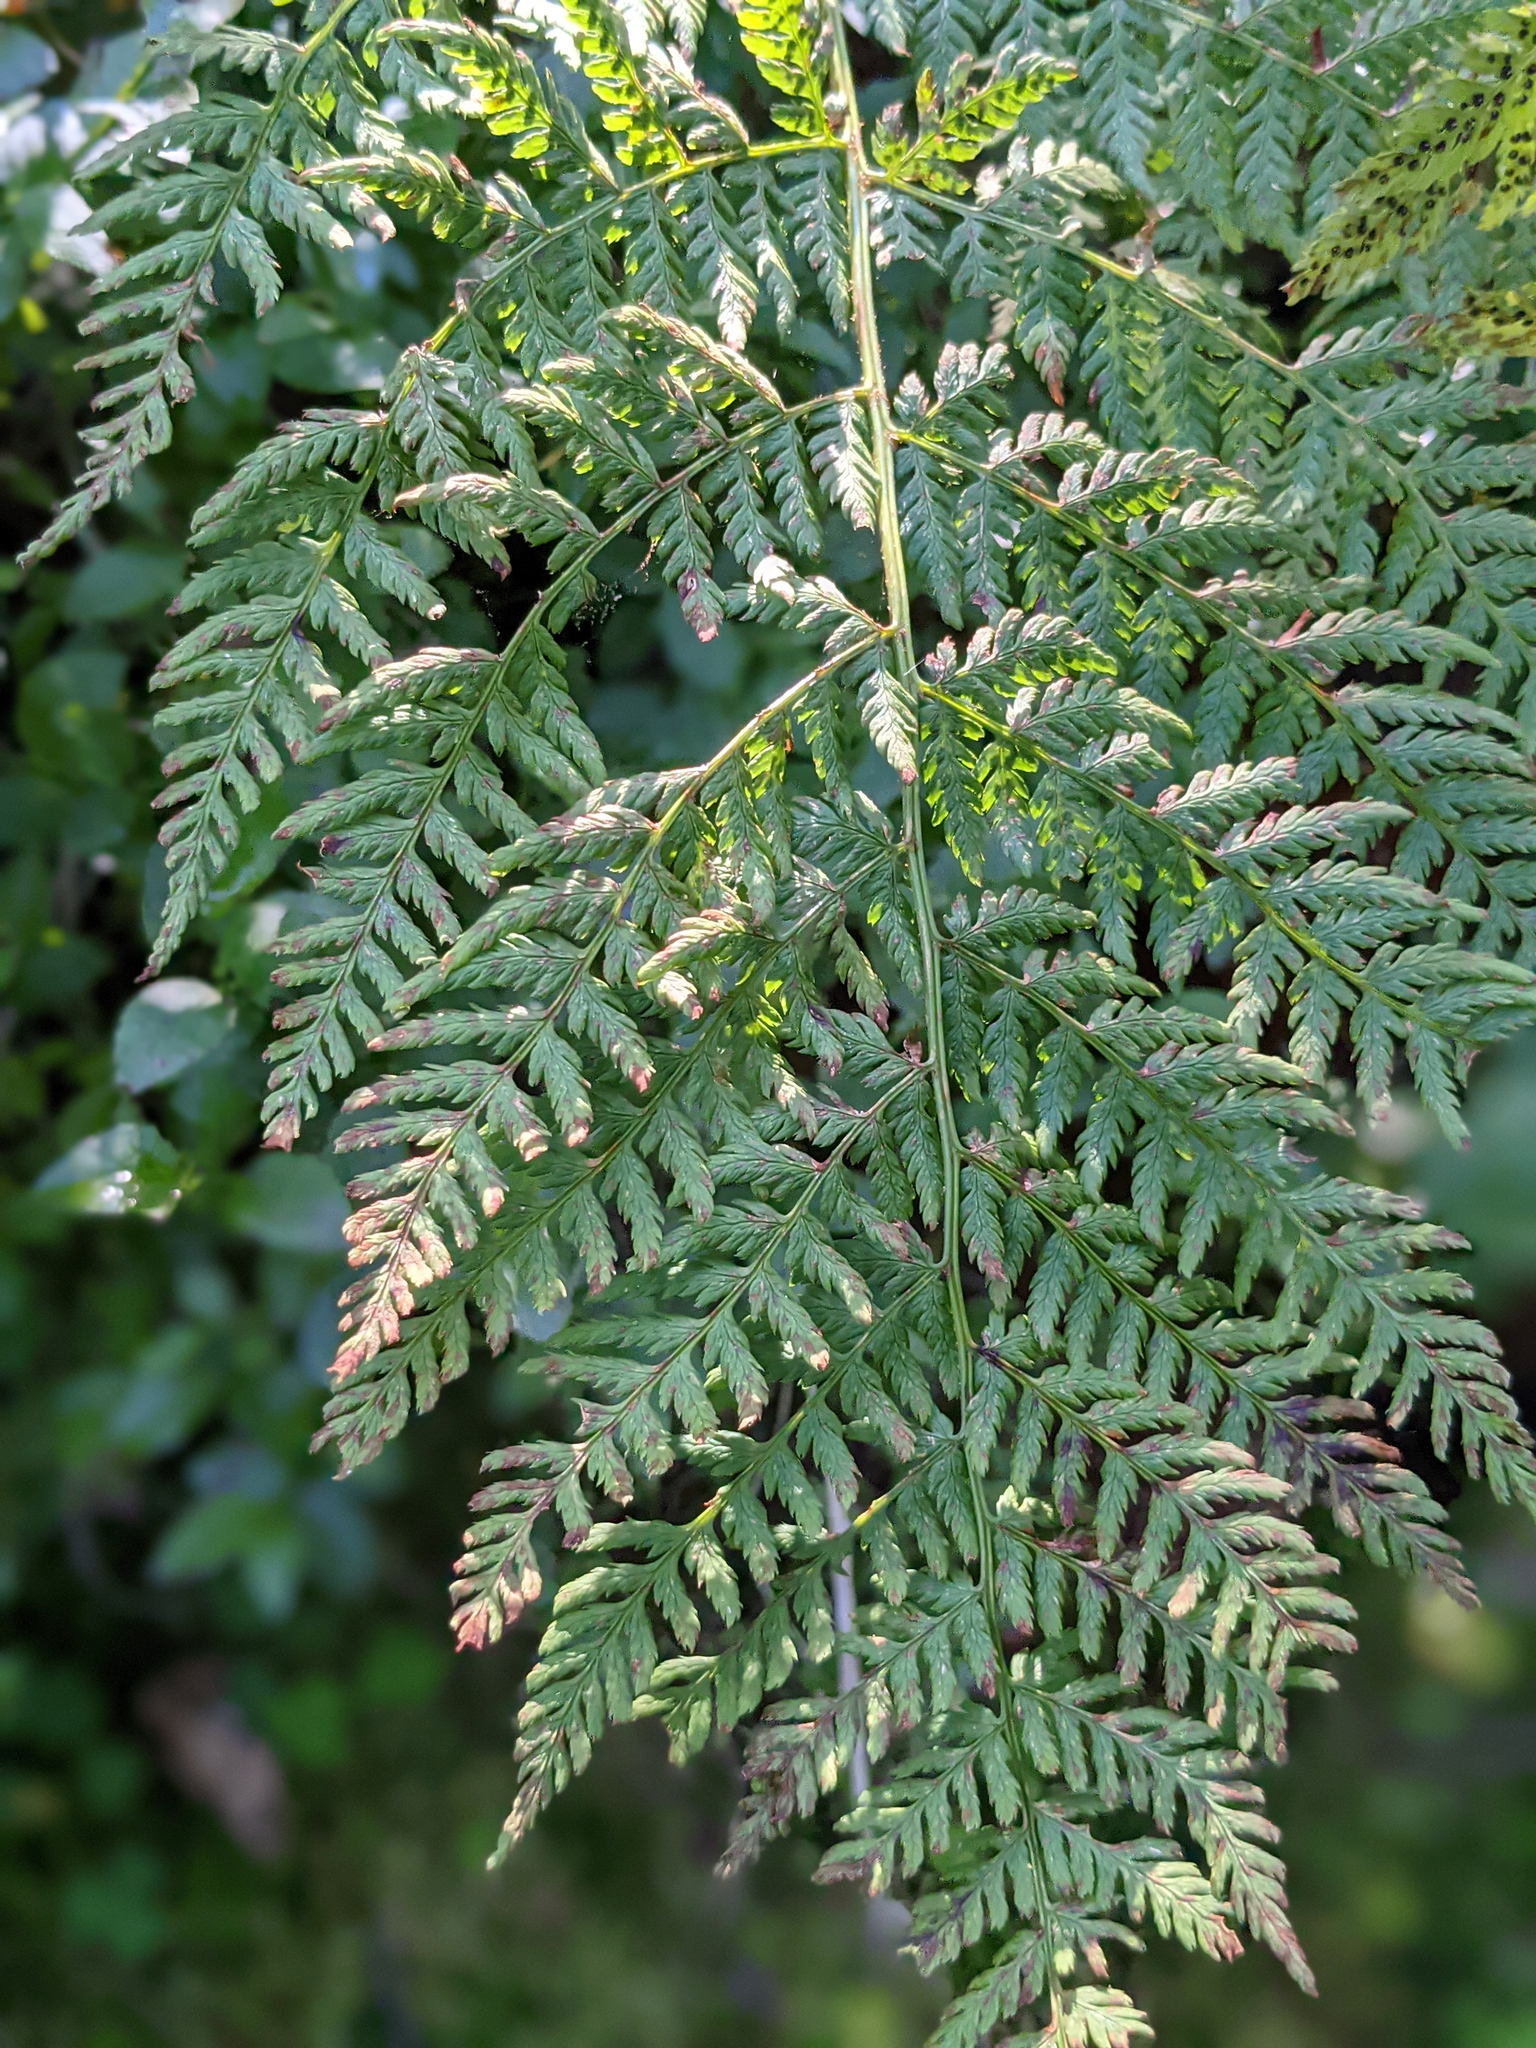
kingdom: Plantae
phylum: Tracheophyta
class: Polypodiopsida
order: Polypodiales
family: Dryopteridaceae
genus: Dryopteris
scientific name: Dryopteris dilatata
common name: Broad buckler-fern
